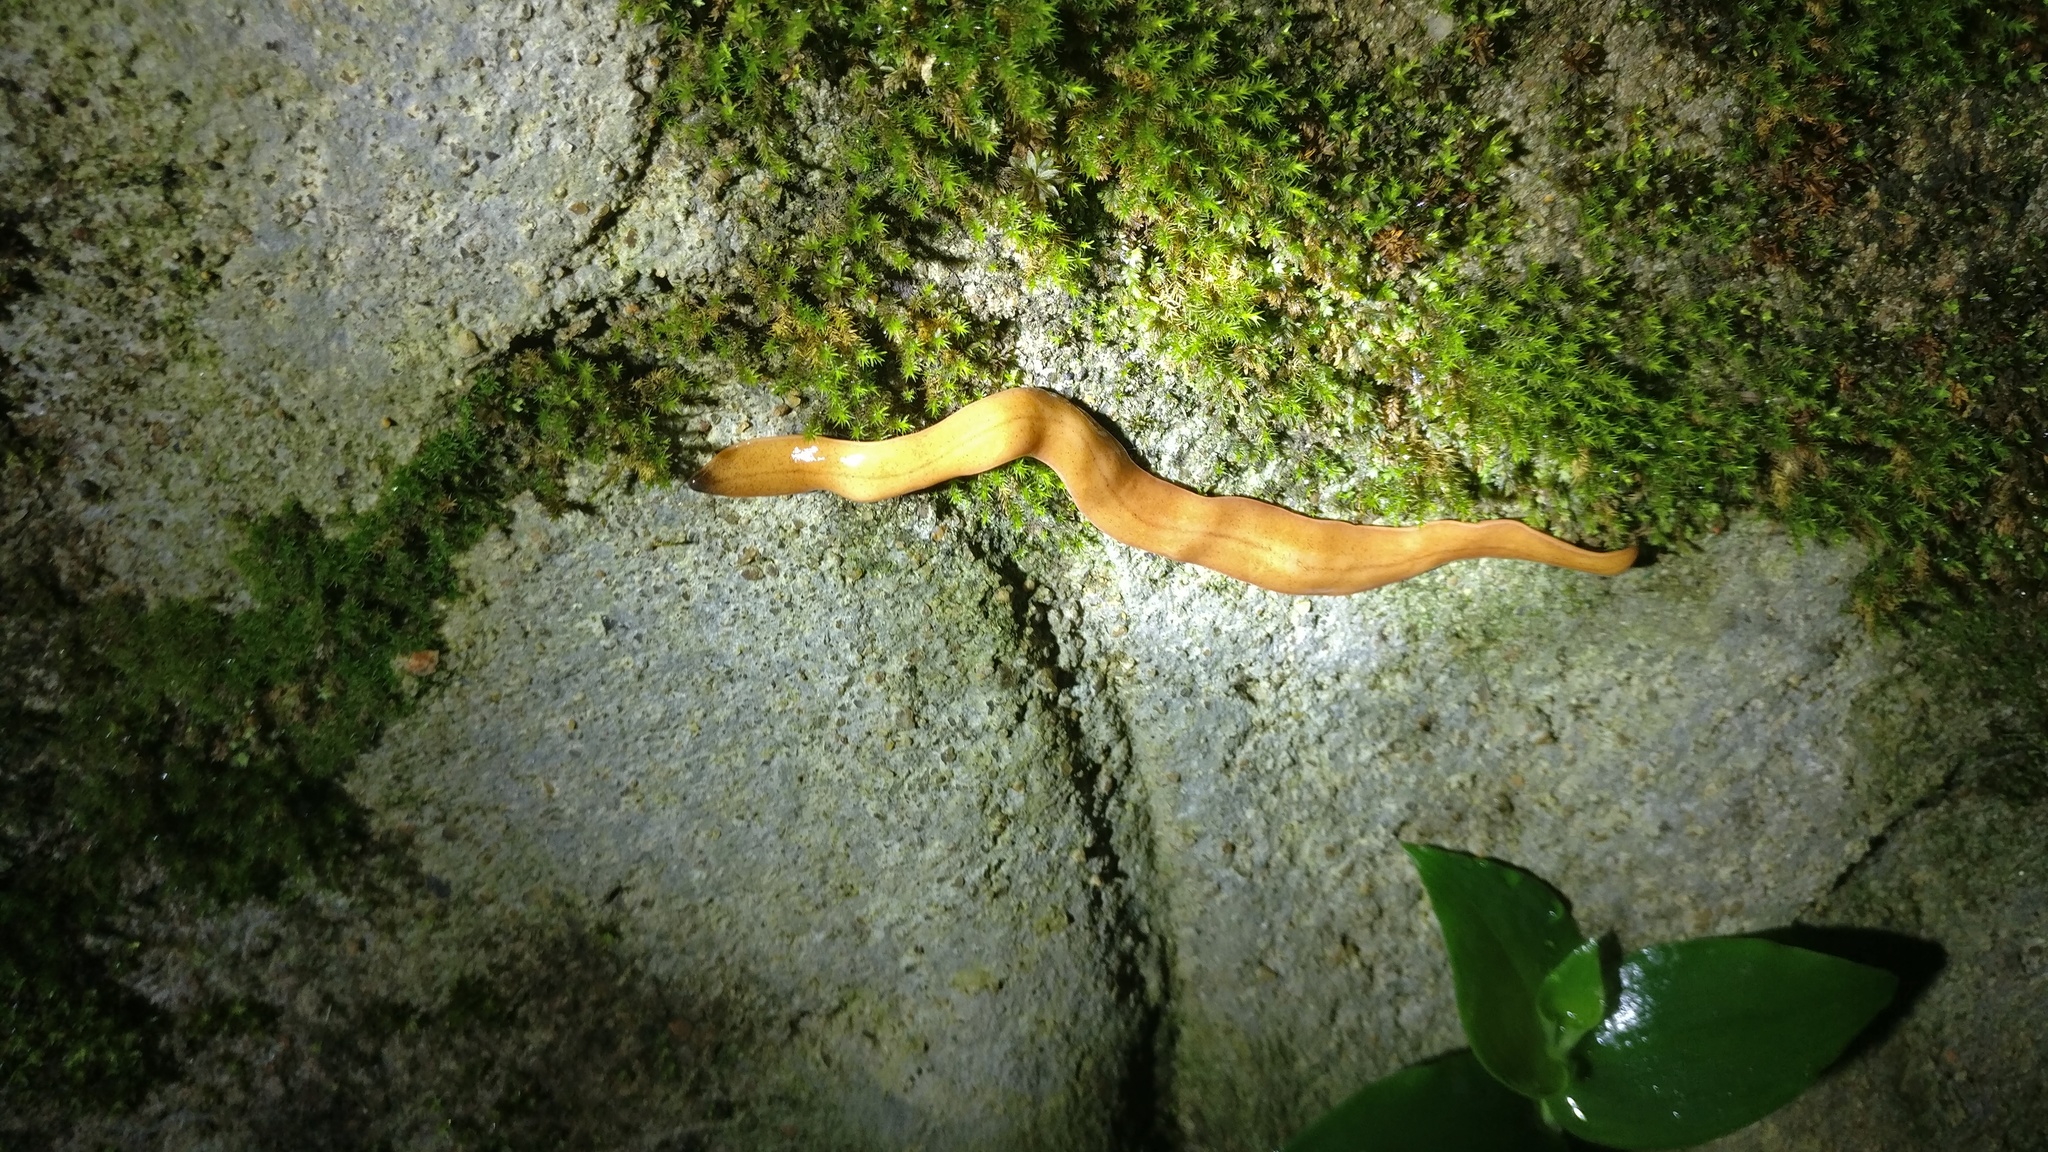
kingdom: Animalia
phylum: Platyhelminthes
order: Tricladida
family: Geoplanidae
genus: Incapora
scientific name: Incapora anamallensis
